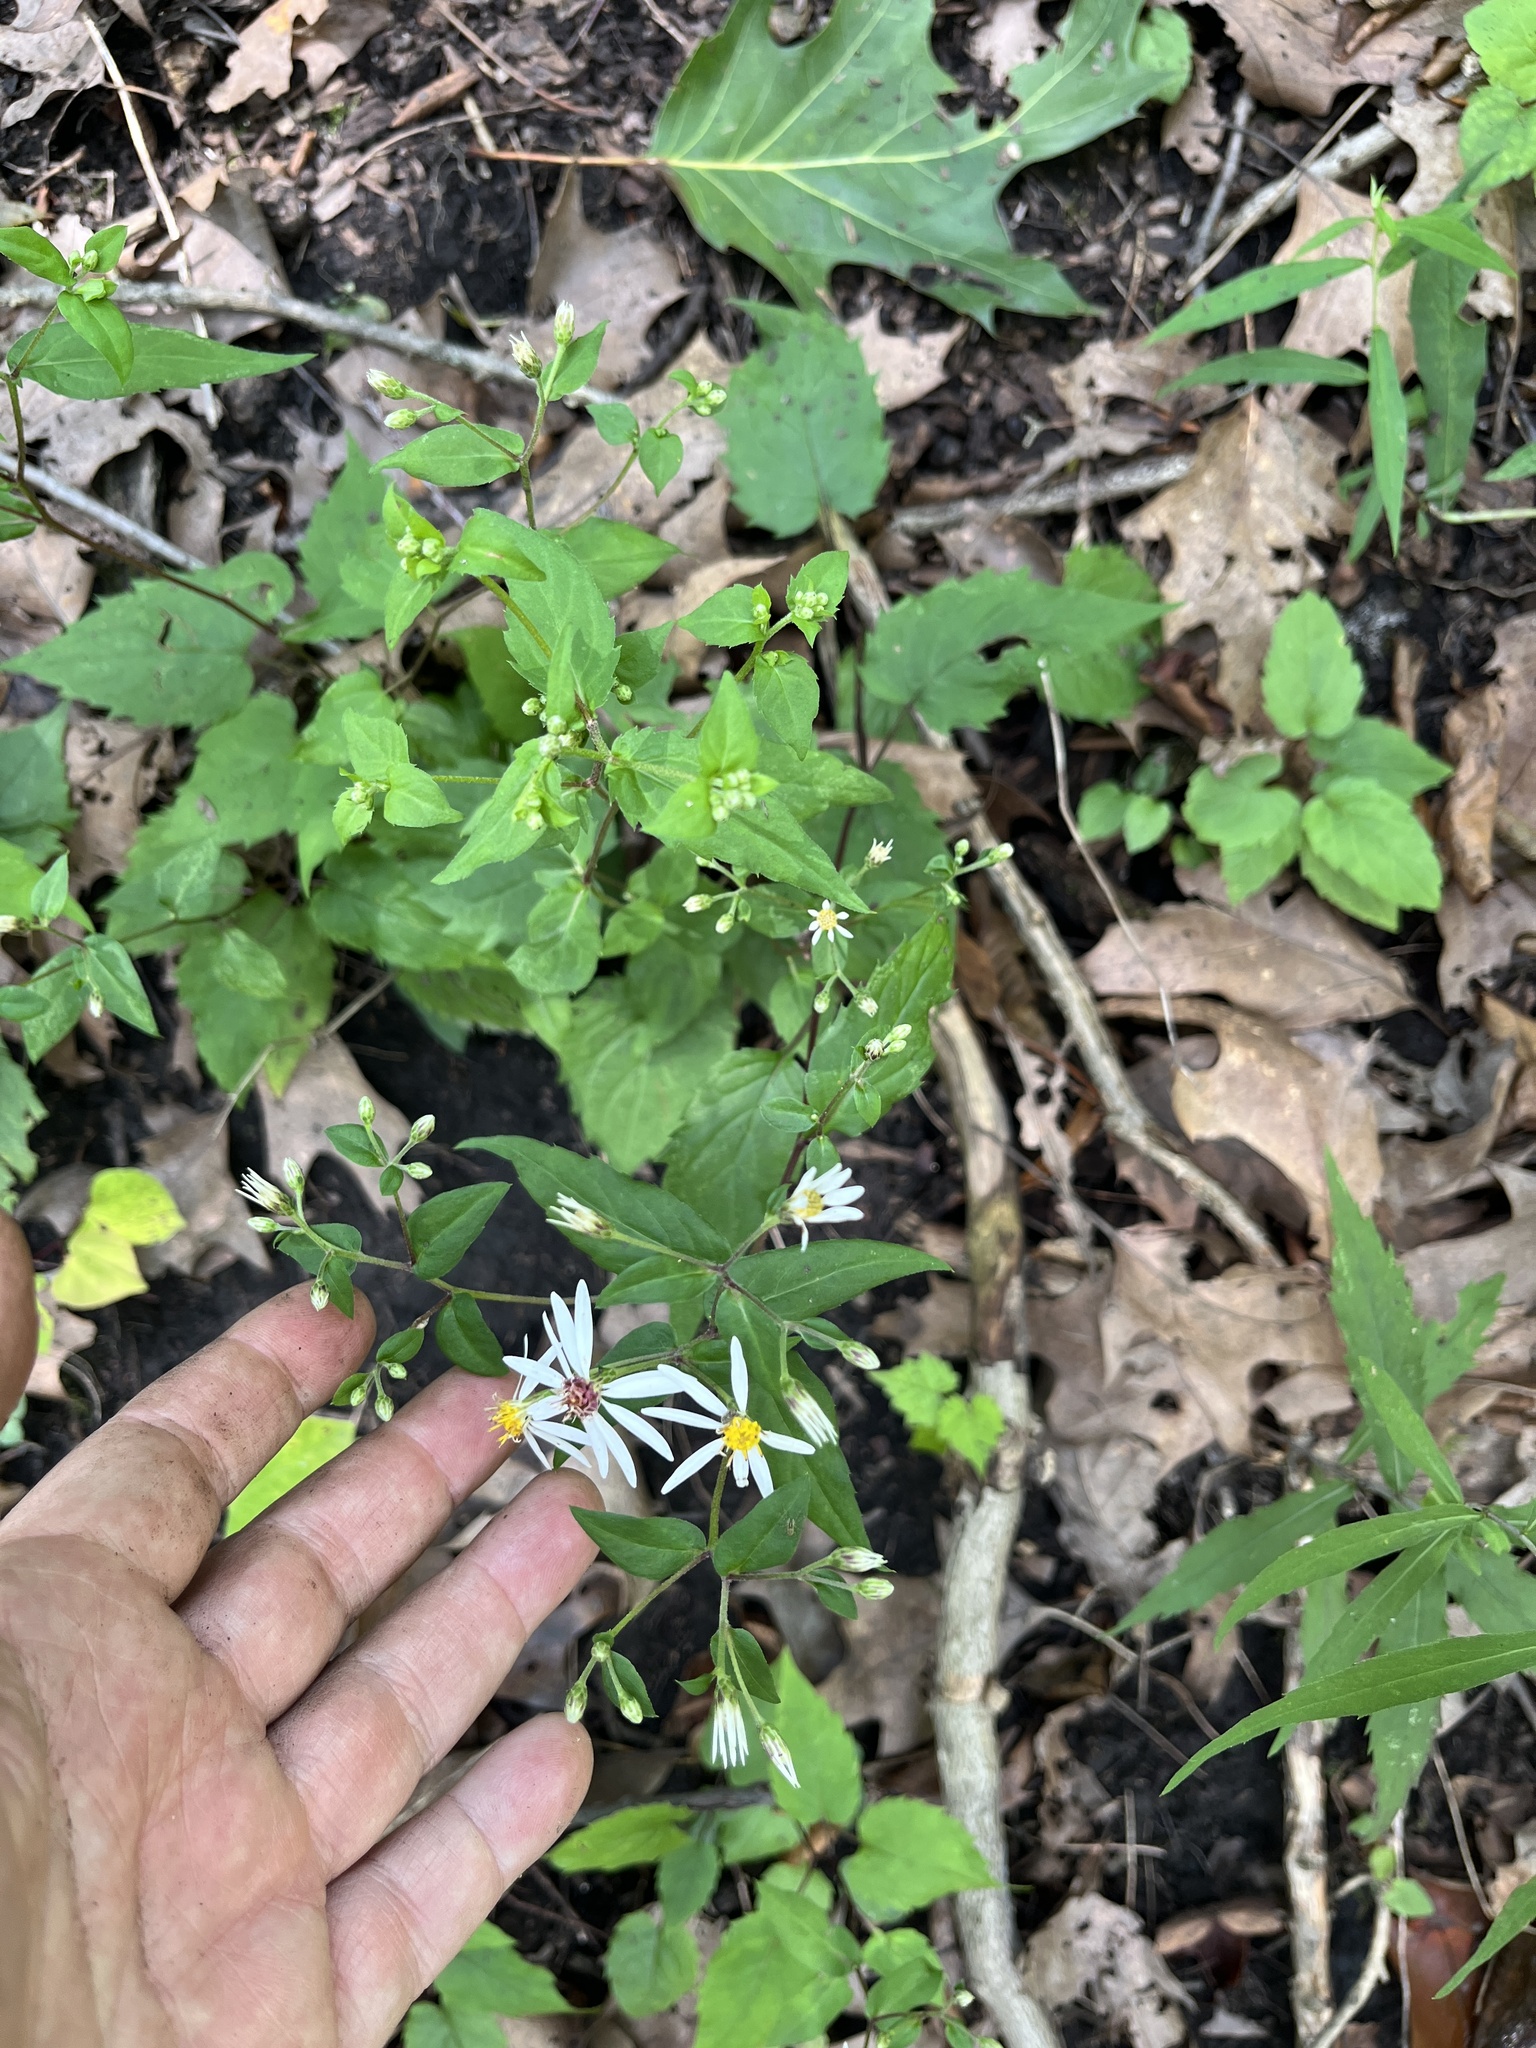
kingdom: Plantae
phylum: Tracheophyta
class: Magnoliopsida
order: Asterales
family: Asteraceae
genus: Eurybia
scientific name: Eurybia divaricata
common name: White wood aster
